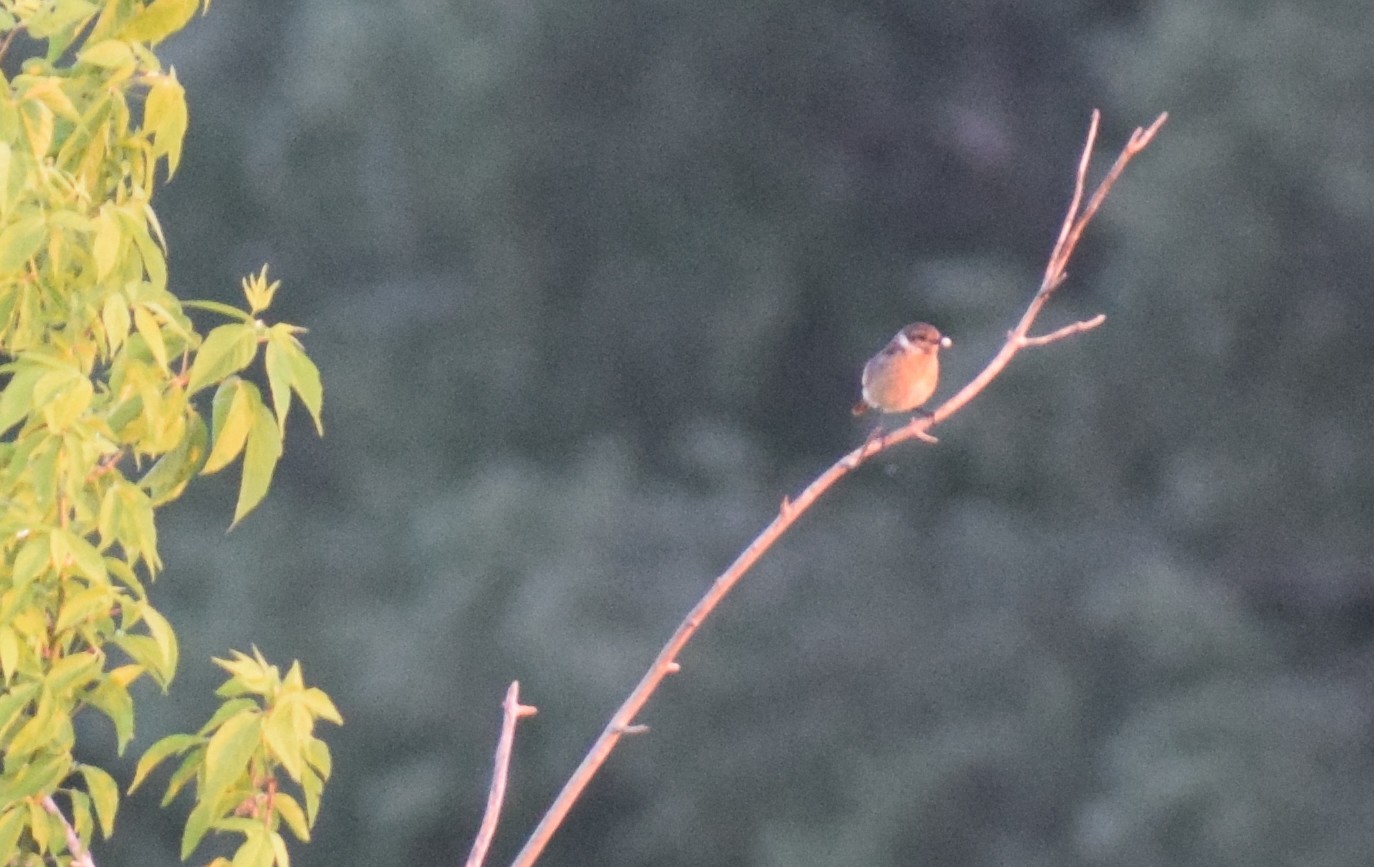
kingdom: Animalia
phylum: Chordata
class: Aves
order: Passeriformes
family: Muscicapidae
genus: Saxicola
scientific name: Saxicola rubicola
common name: European stonechat
